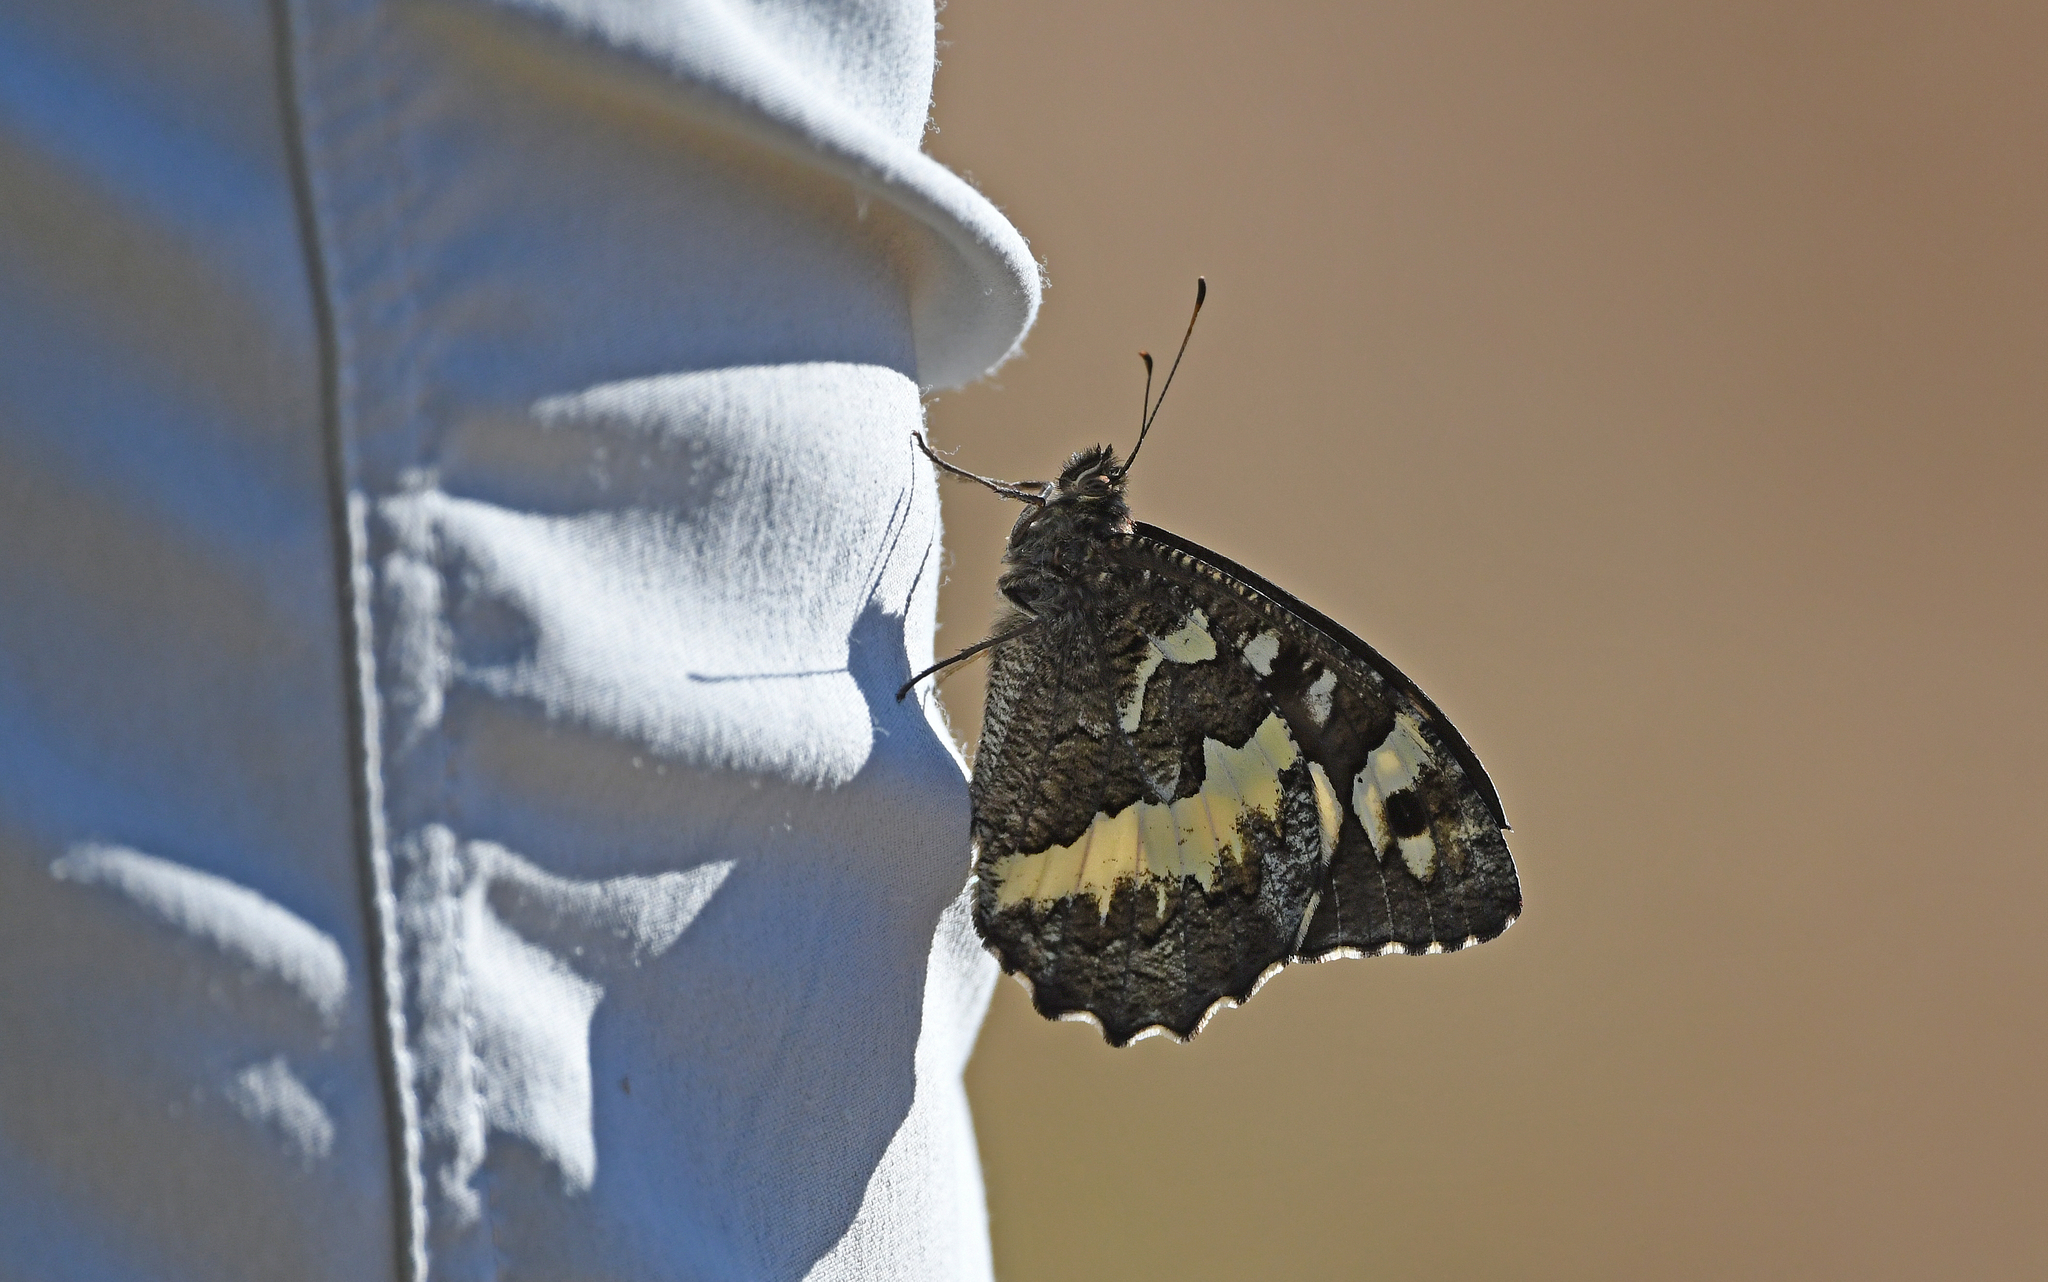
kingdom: Animalia
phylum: Arthropoda
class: Insecta
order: Lepidoptera
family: Lycaenidae
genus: Loweia
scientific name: Loweia tityrus
